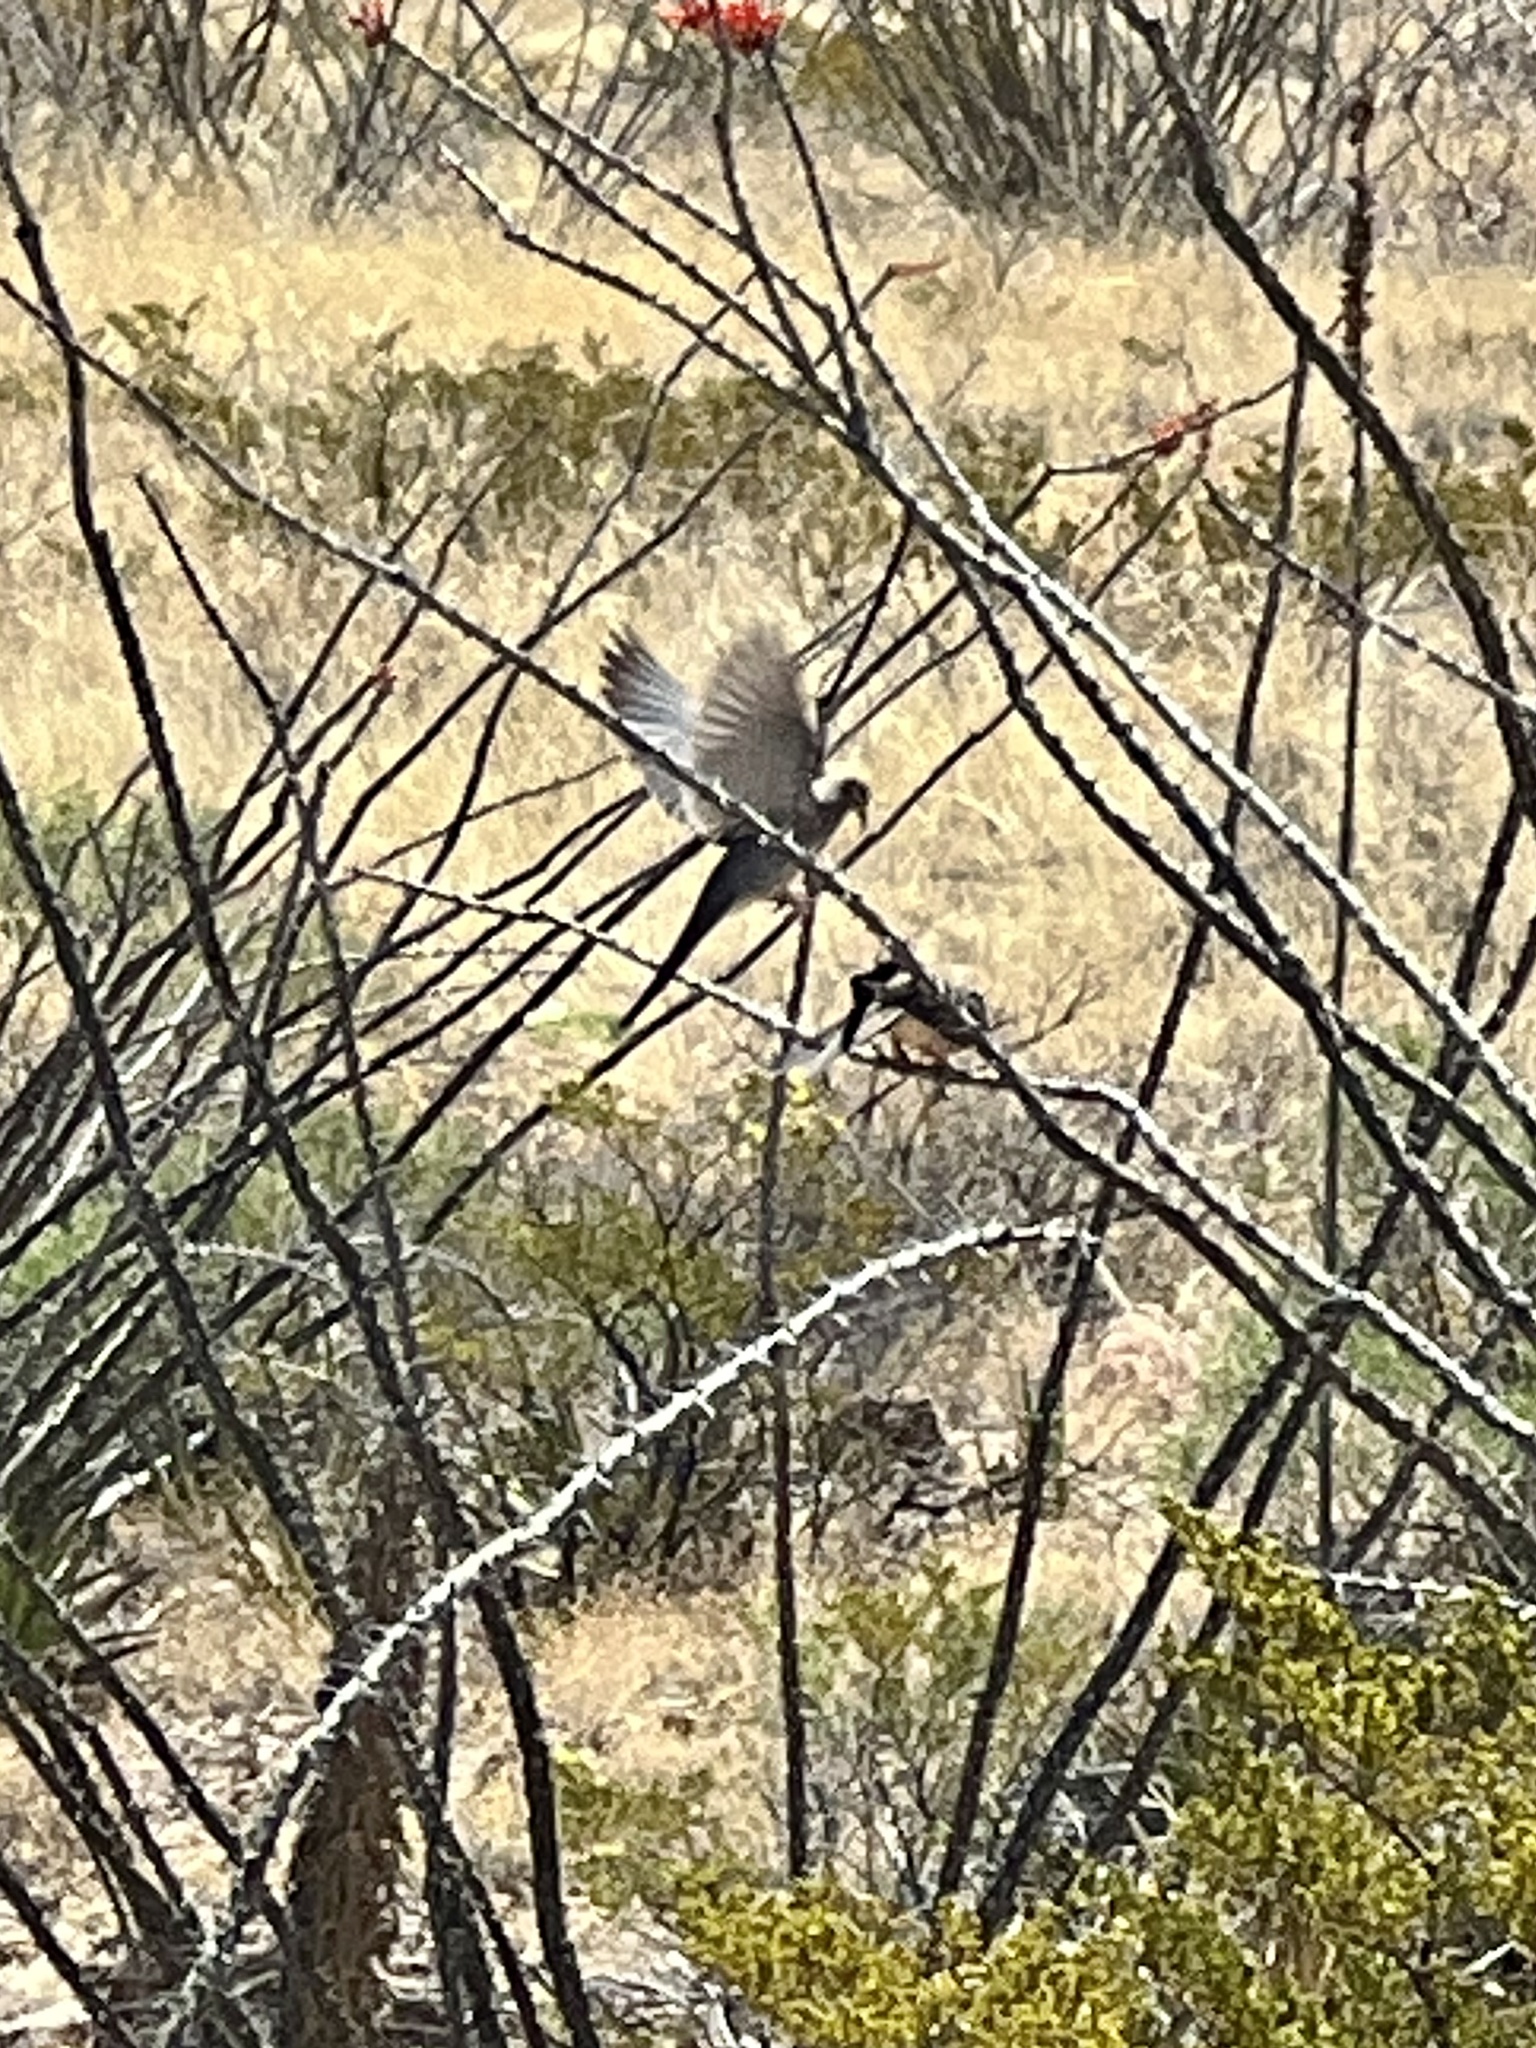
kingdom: Animalia
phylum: Chordata
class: Aves
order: Columbiformes
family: Columbidae
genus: Zenaida
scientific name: Zenaida macroura
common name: Mourning dove
